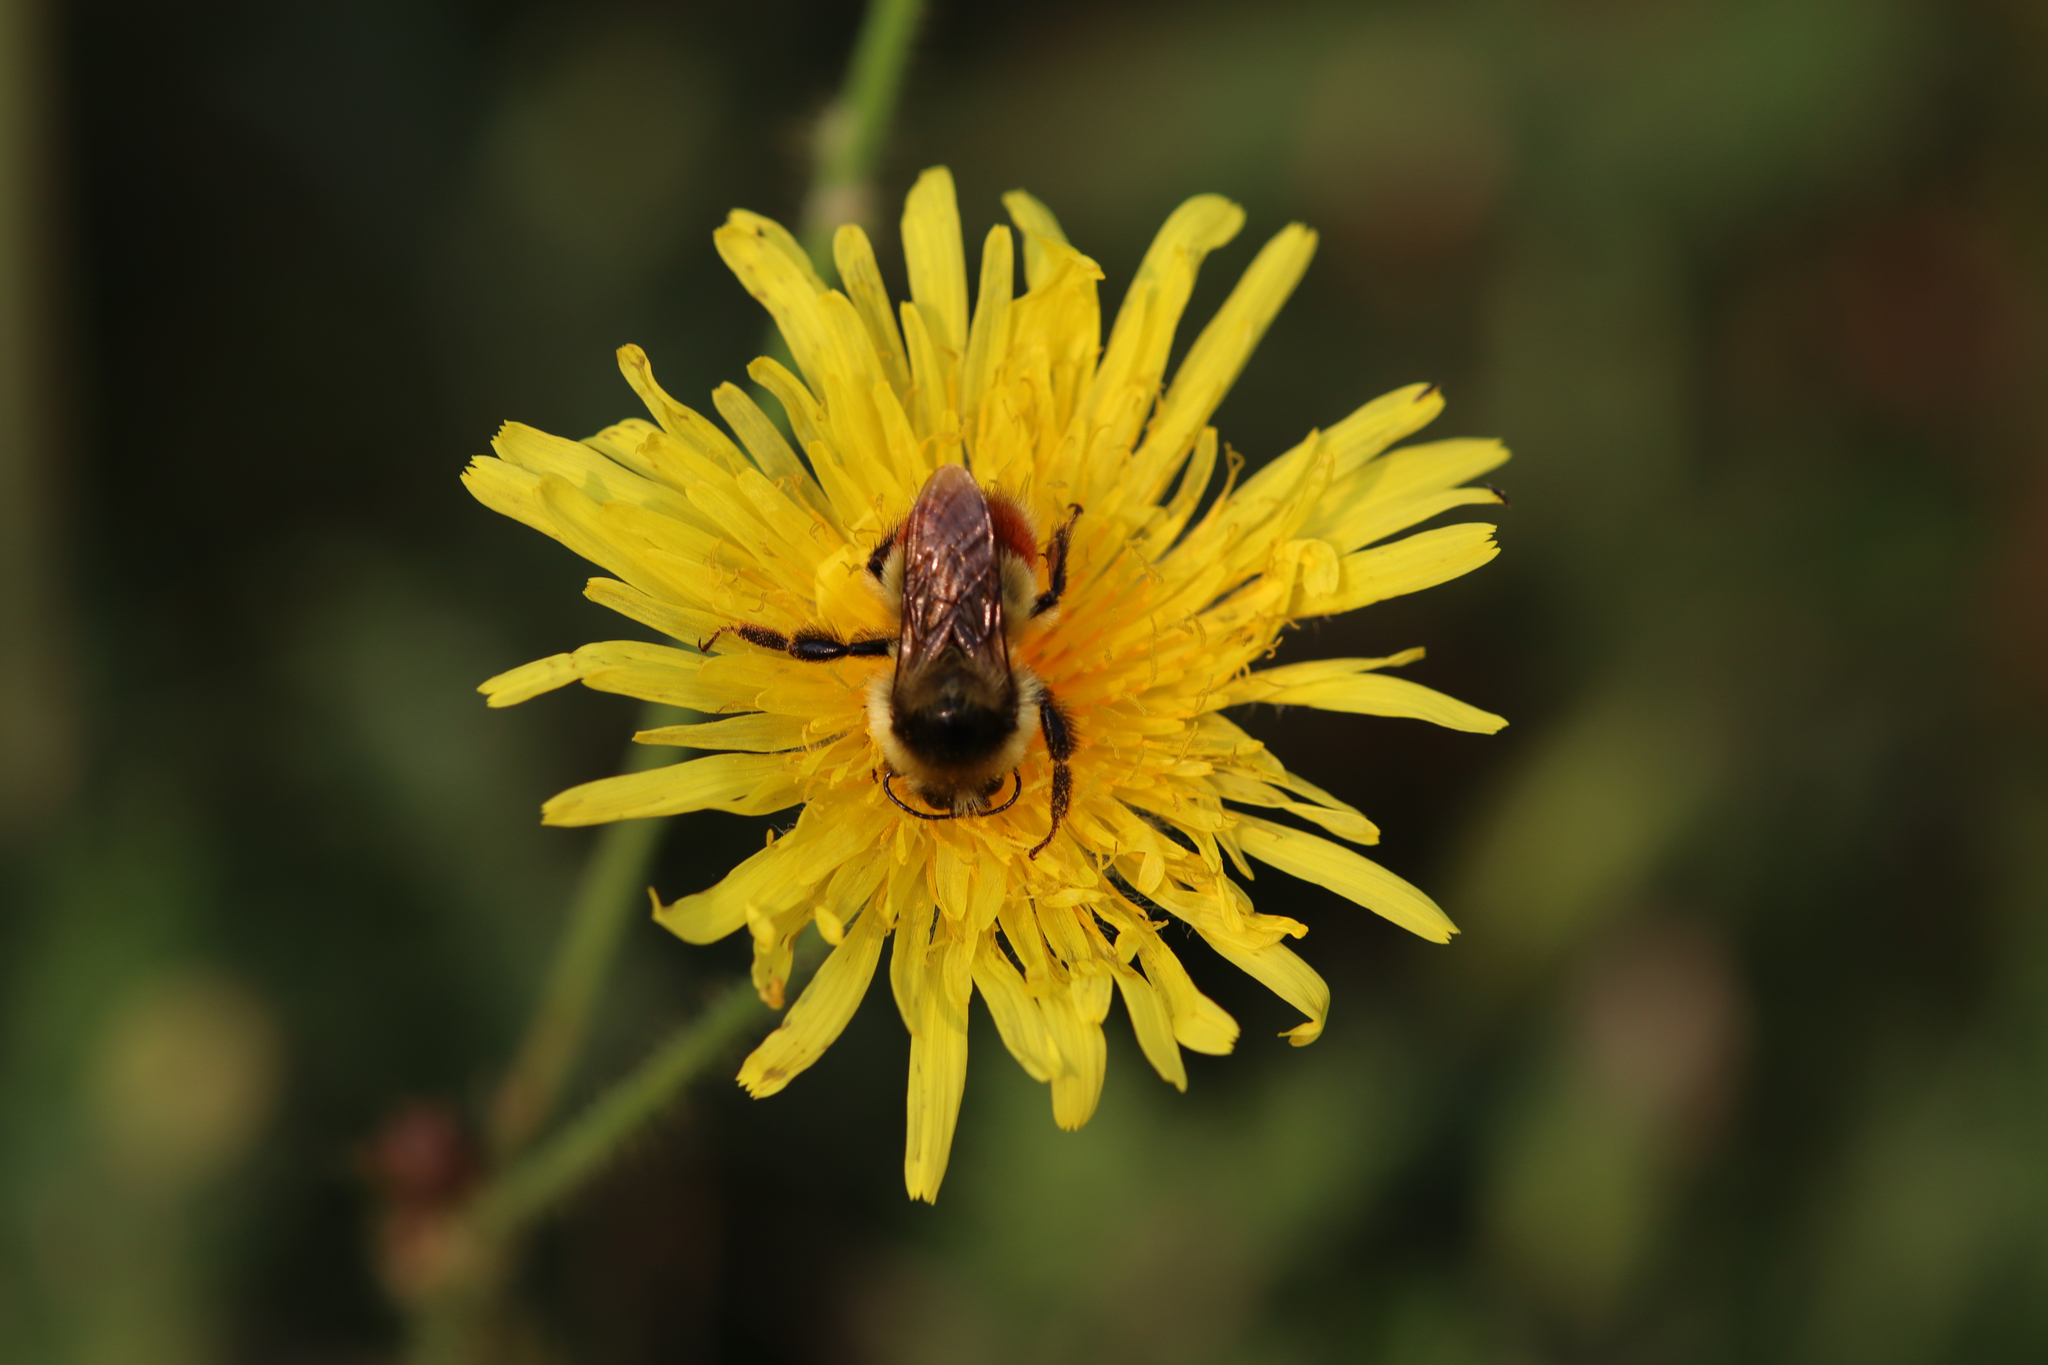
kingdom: Animalia
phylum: Arthropoda
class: Insecta
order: Hymenoptera
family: Apidae
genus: Bombus
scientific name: Bombus rufocinctus
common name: Red-belted bumble bee
